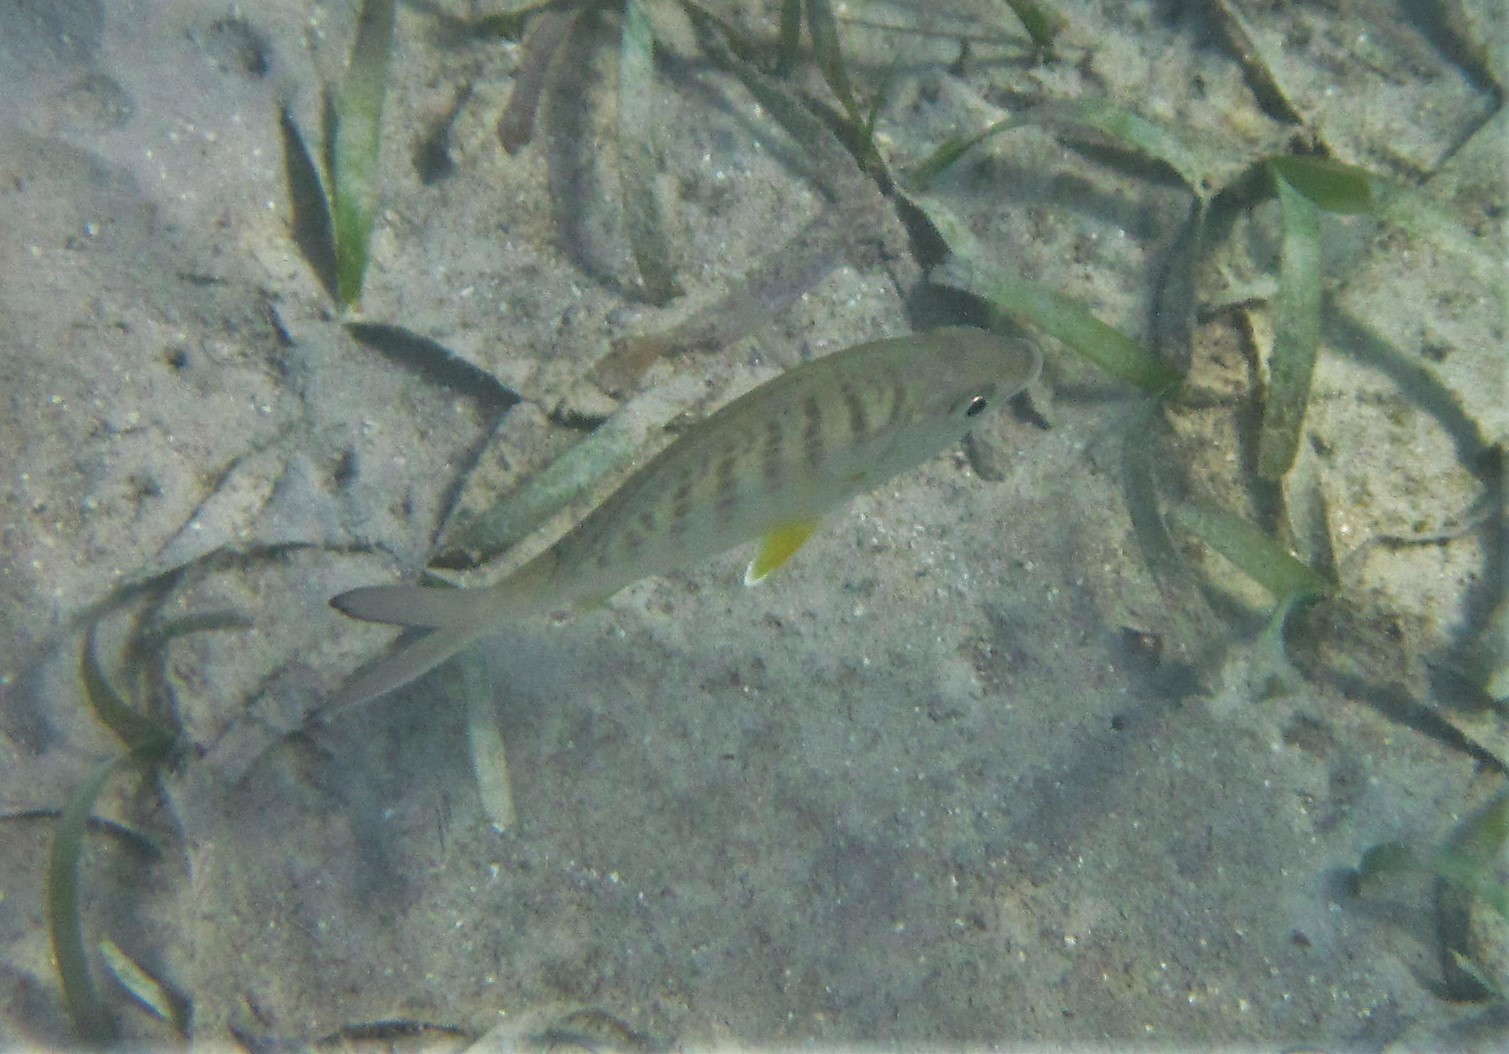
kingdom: Animalia
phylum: Chordata
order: Perciformes
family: Gerreidae
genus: Gerres
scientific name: Gerres cinereus
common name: Hedow
